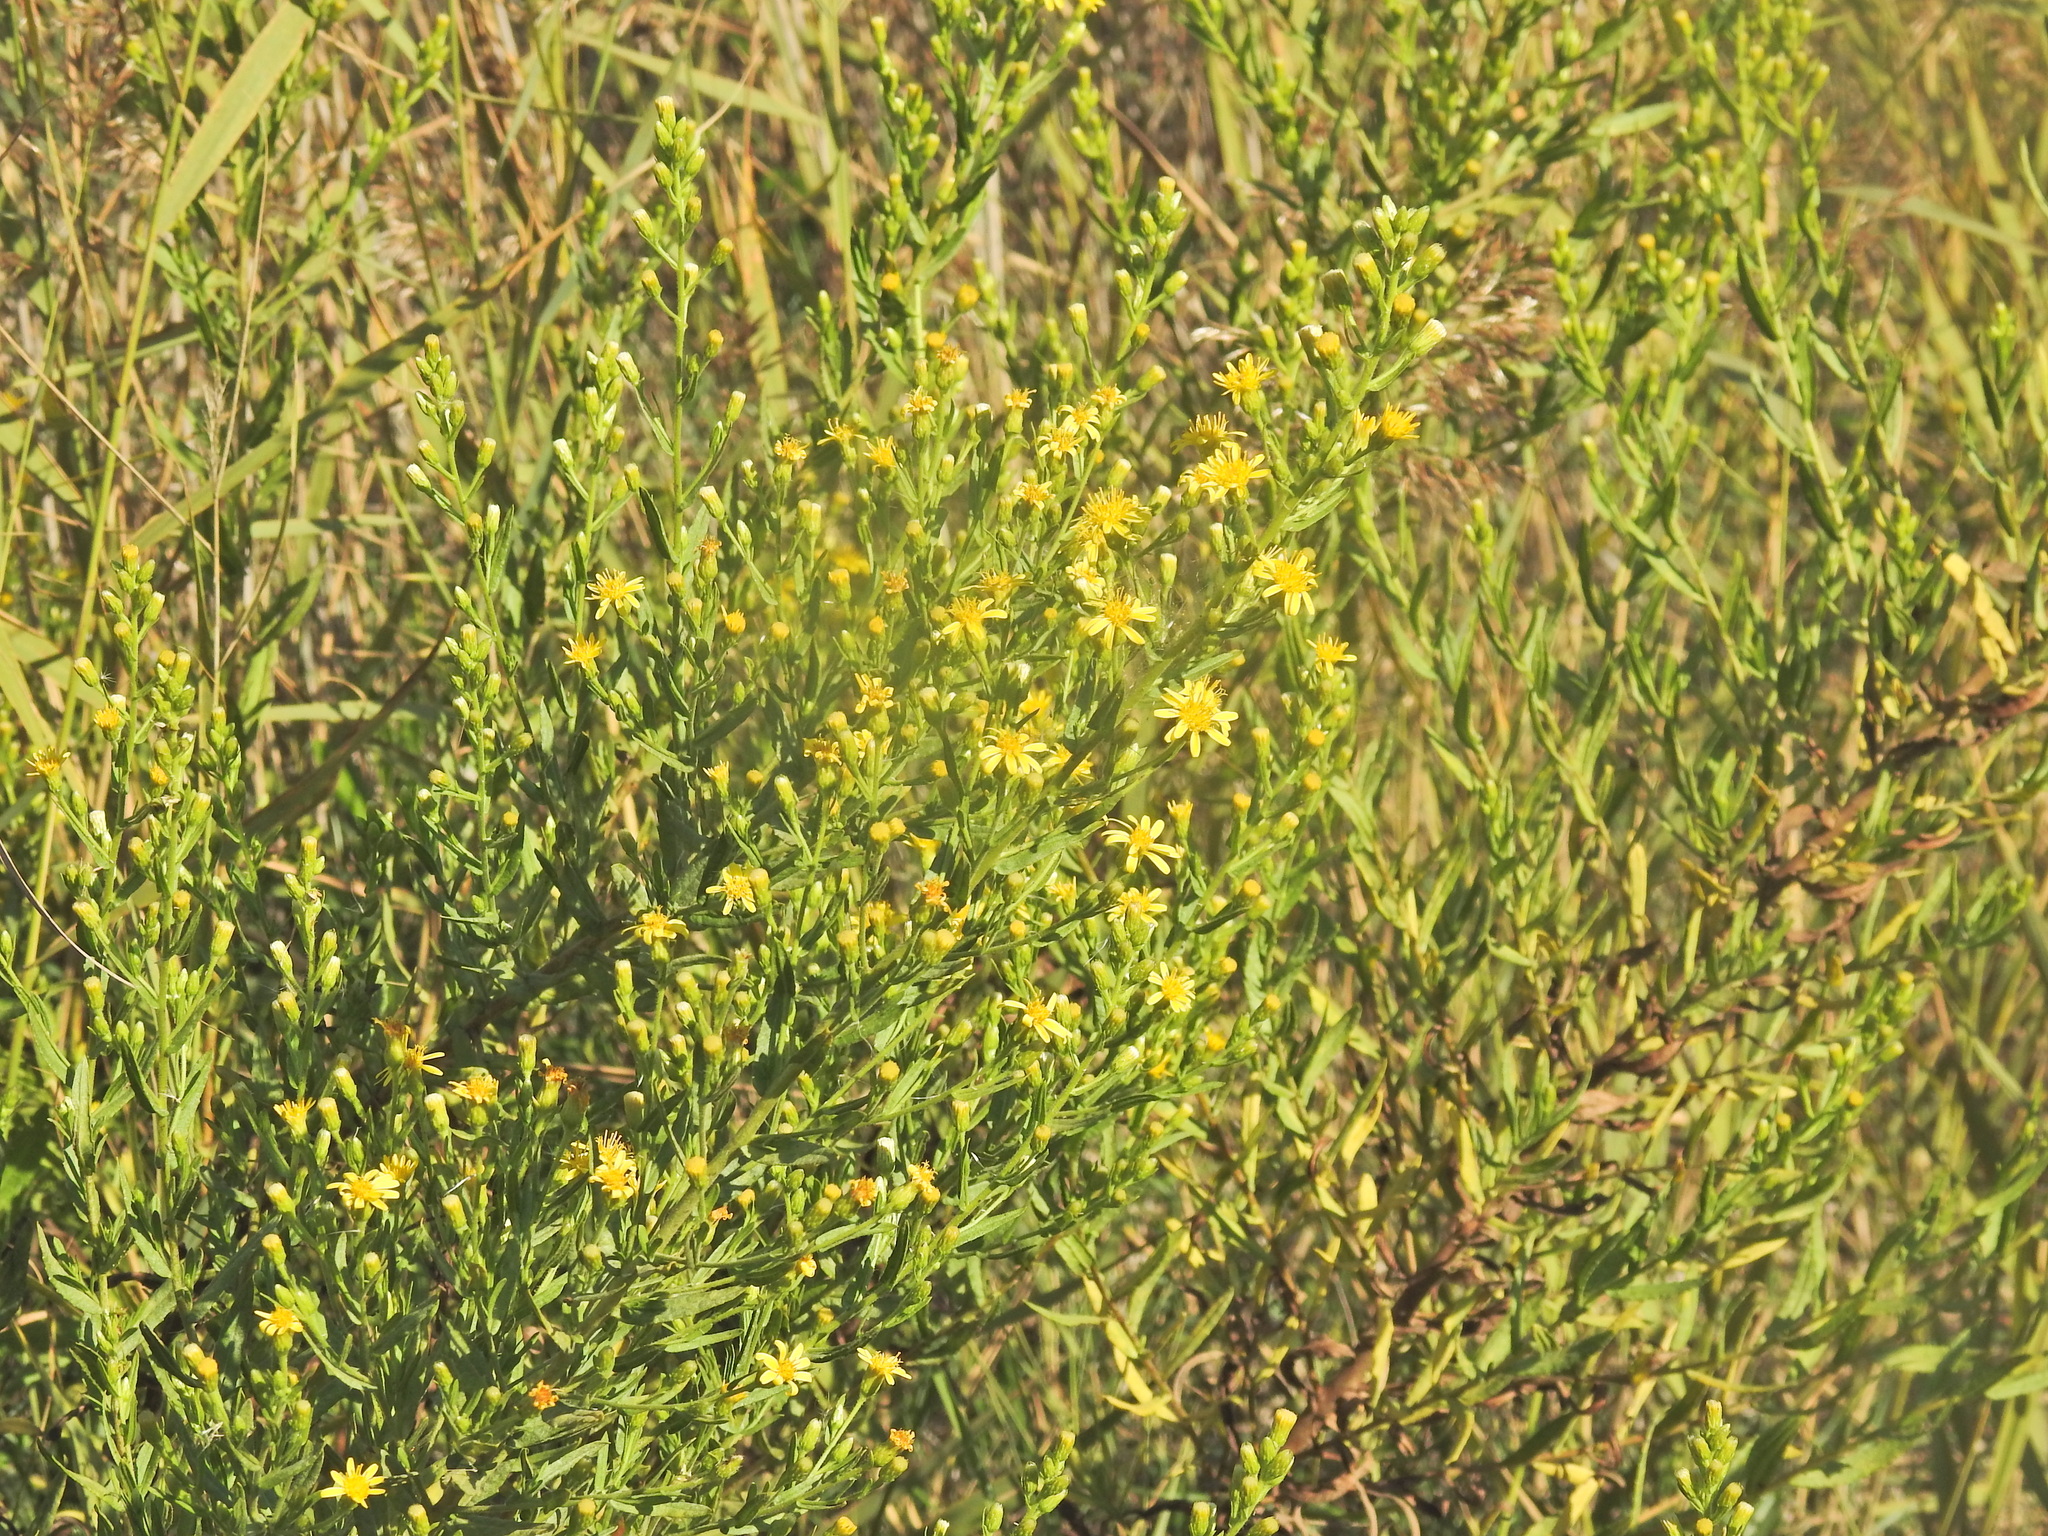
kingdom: Plantae
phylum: Tracheophyta
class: Magnoliopsida
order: Asterales
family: Asteraceae
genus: Dittrichia
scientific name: Dittrichia viscosa
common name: Woody fleabane
